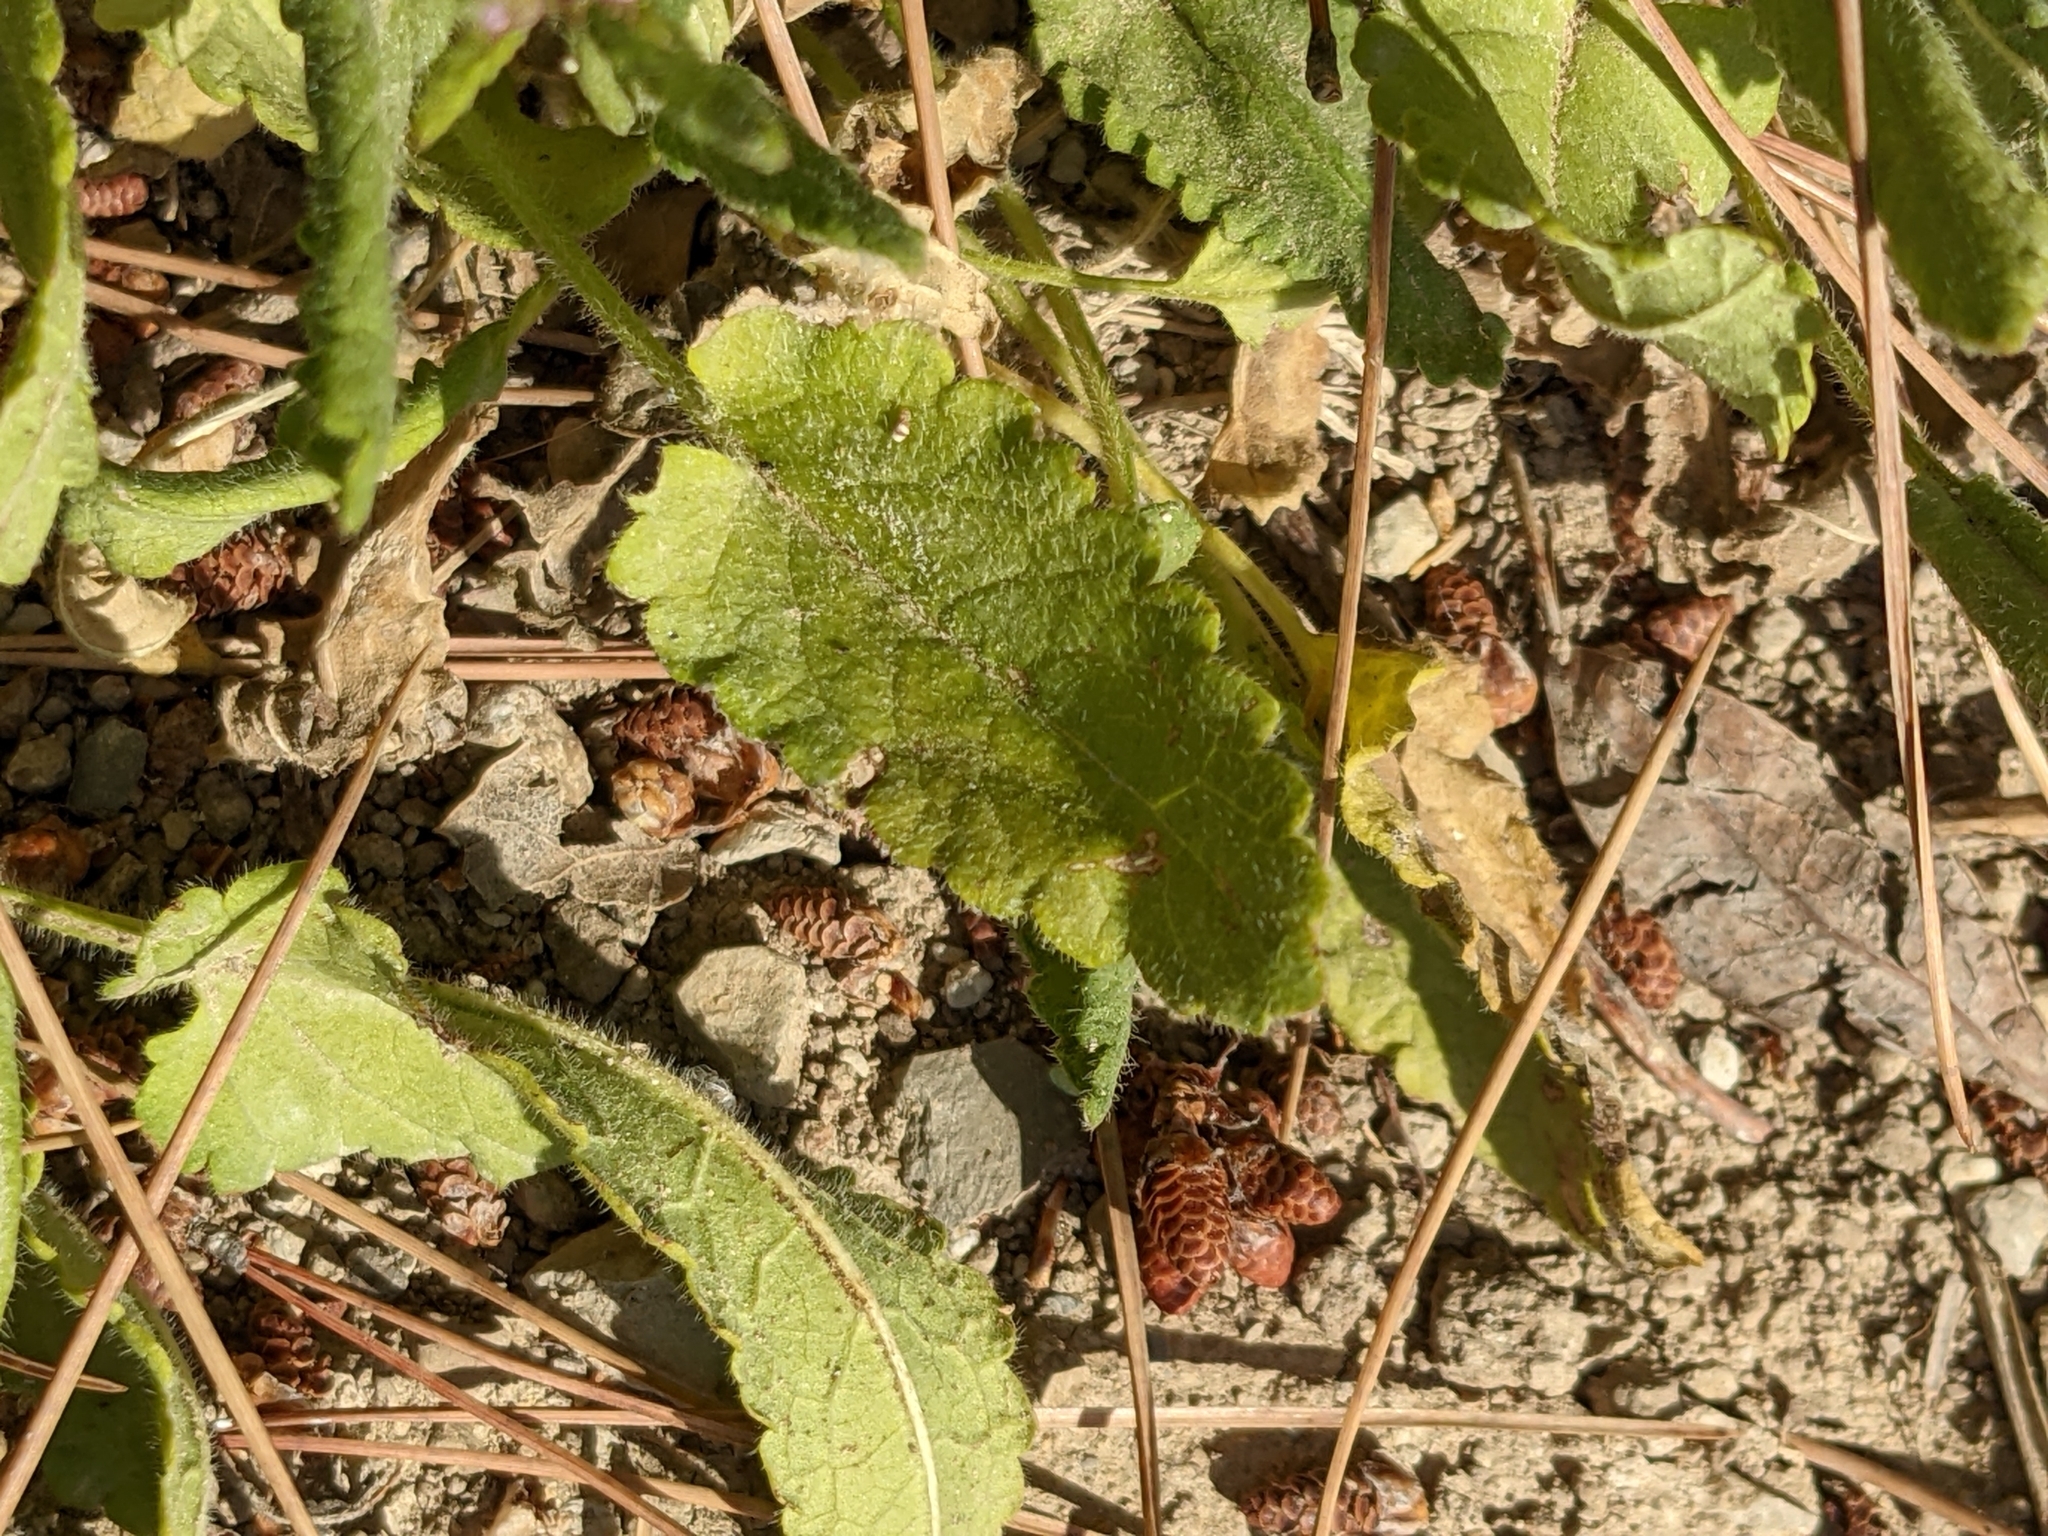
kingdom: Plantae
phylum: Tracheophyta
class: Magnoliopsida
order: Lamiales
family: Lamiaceae
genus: Betonica
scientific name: Betonica officinalis
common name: Bishop's-wort
